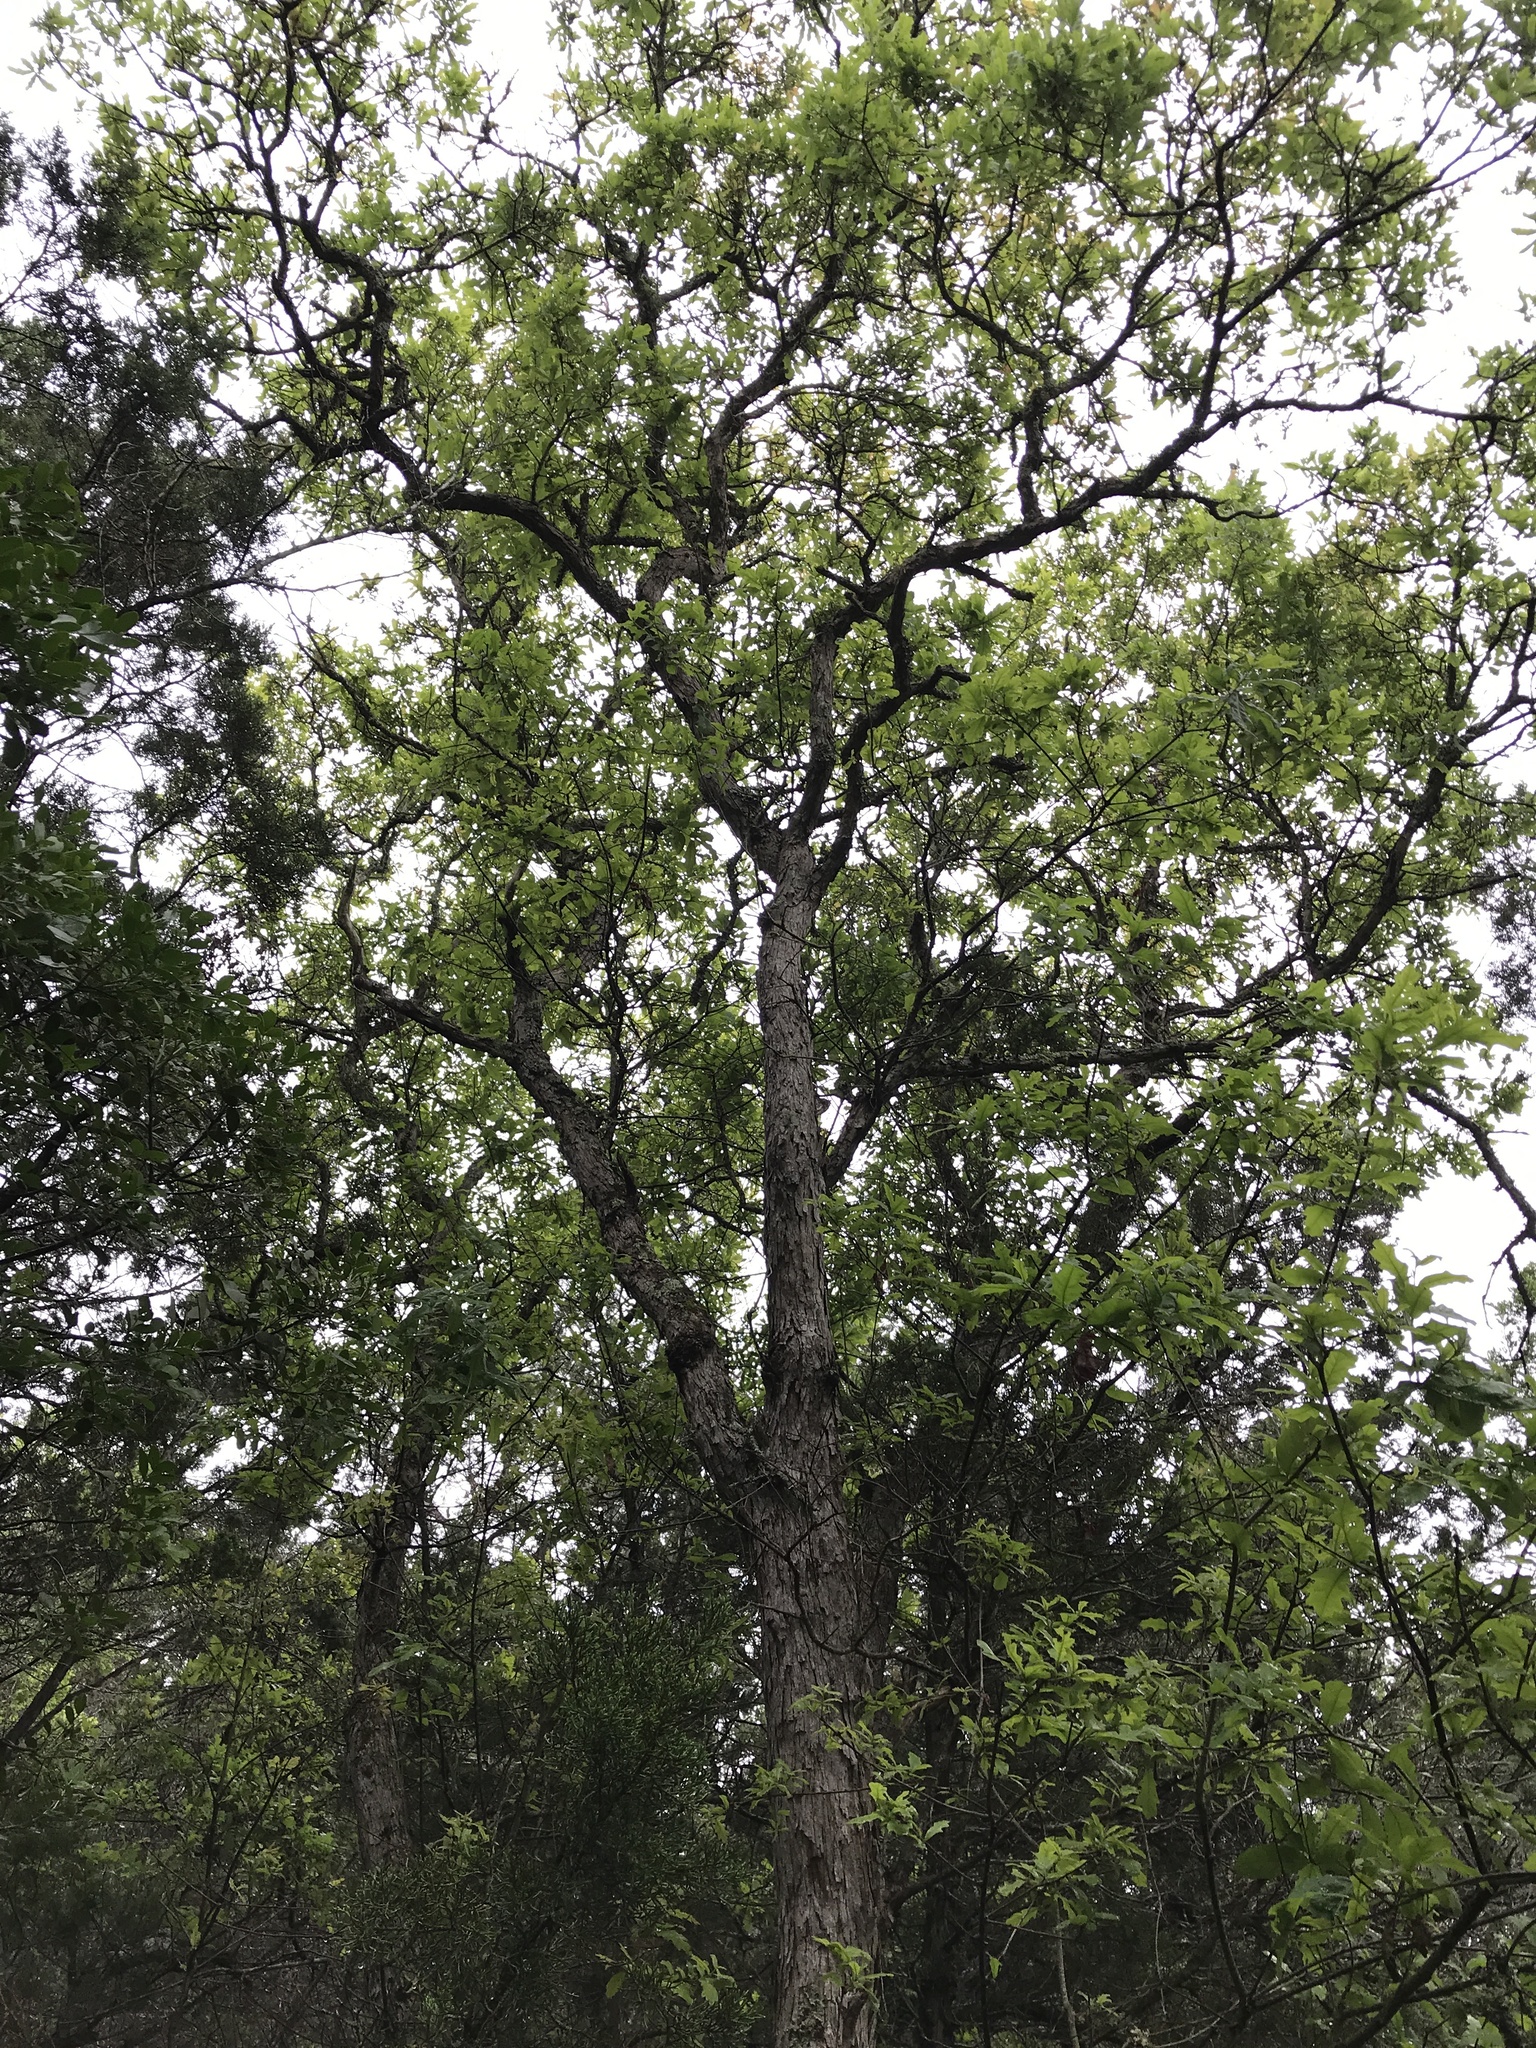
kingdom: Plantae
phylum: Tracheophyta
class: Magnoliopsida
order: Fagales
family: Fagaceae
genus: Quercus
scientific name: Quercus sinuata
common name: Durand oak
